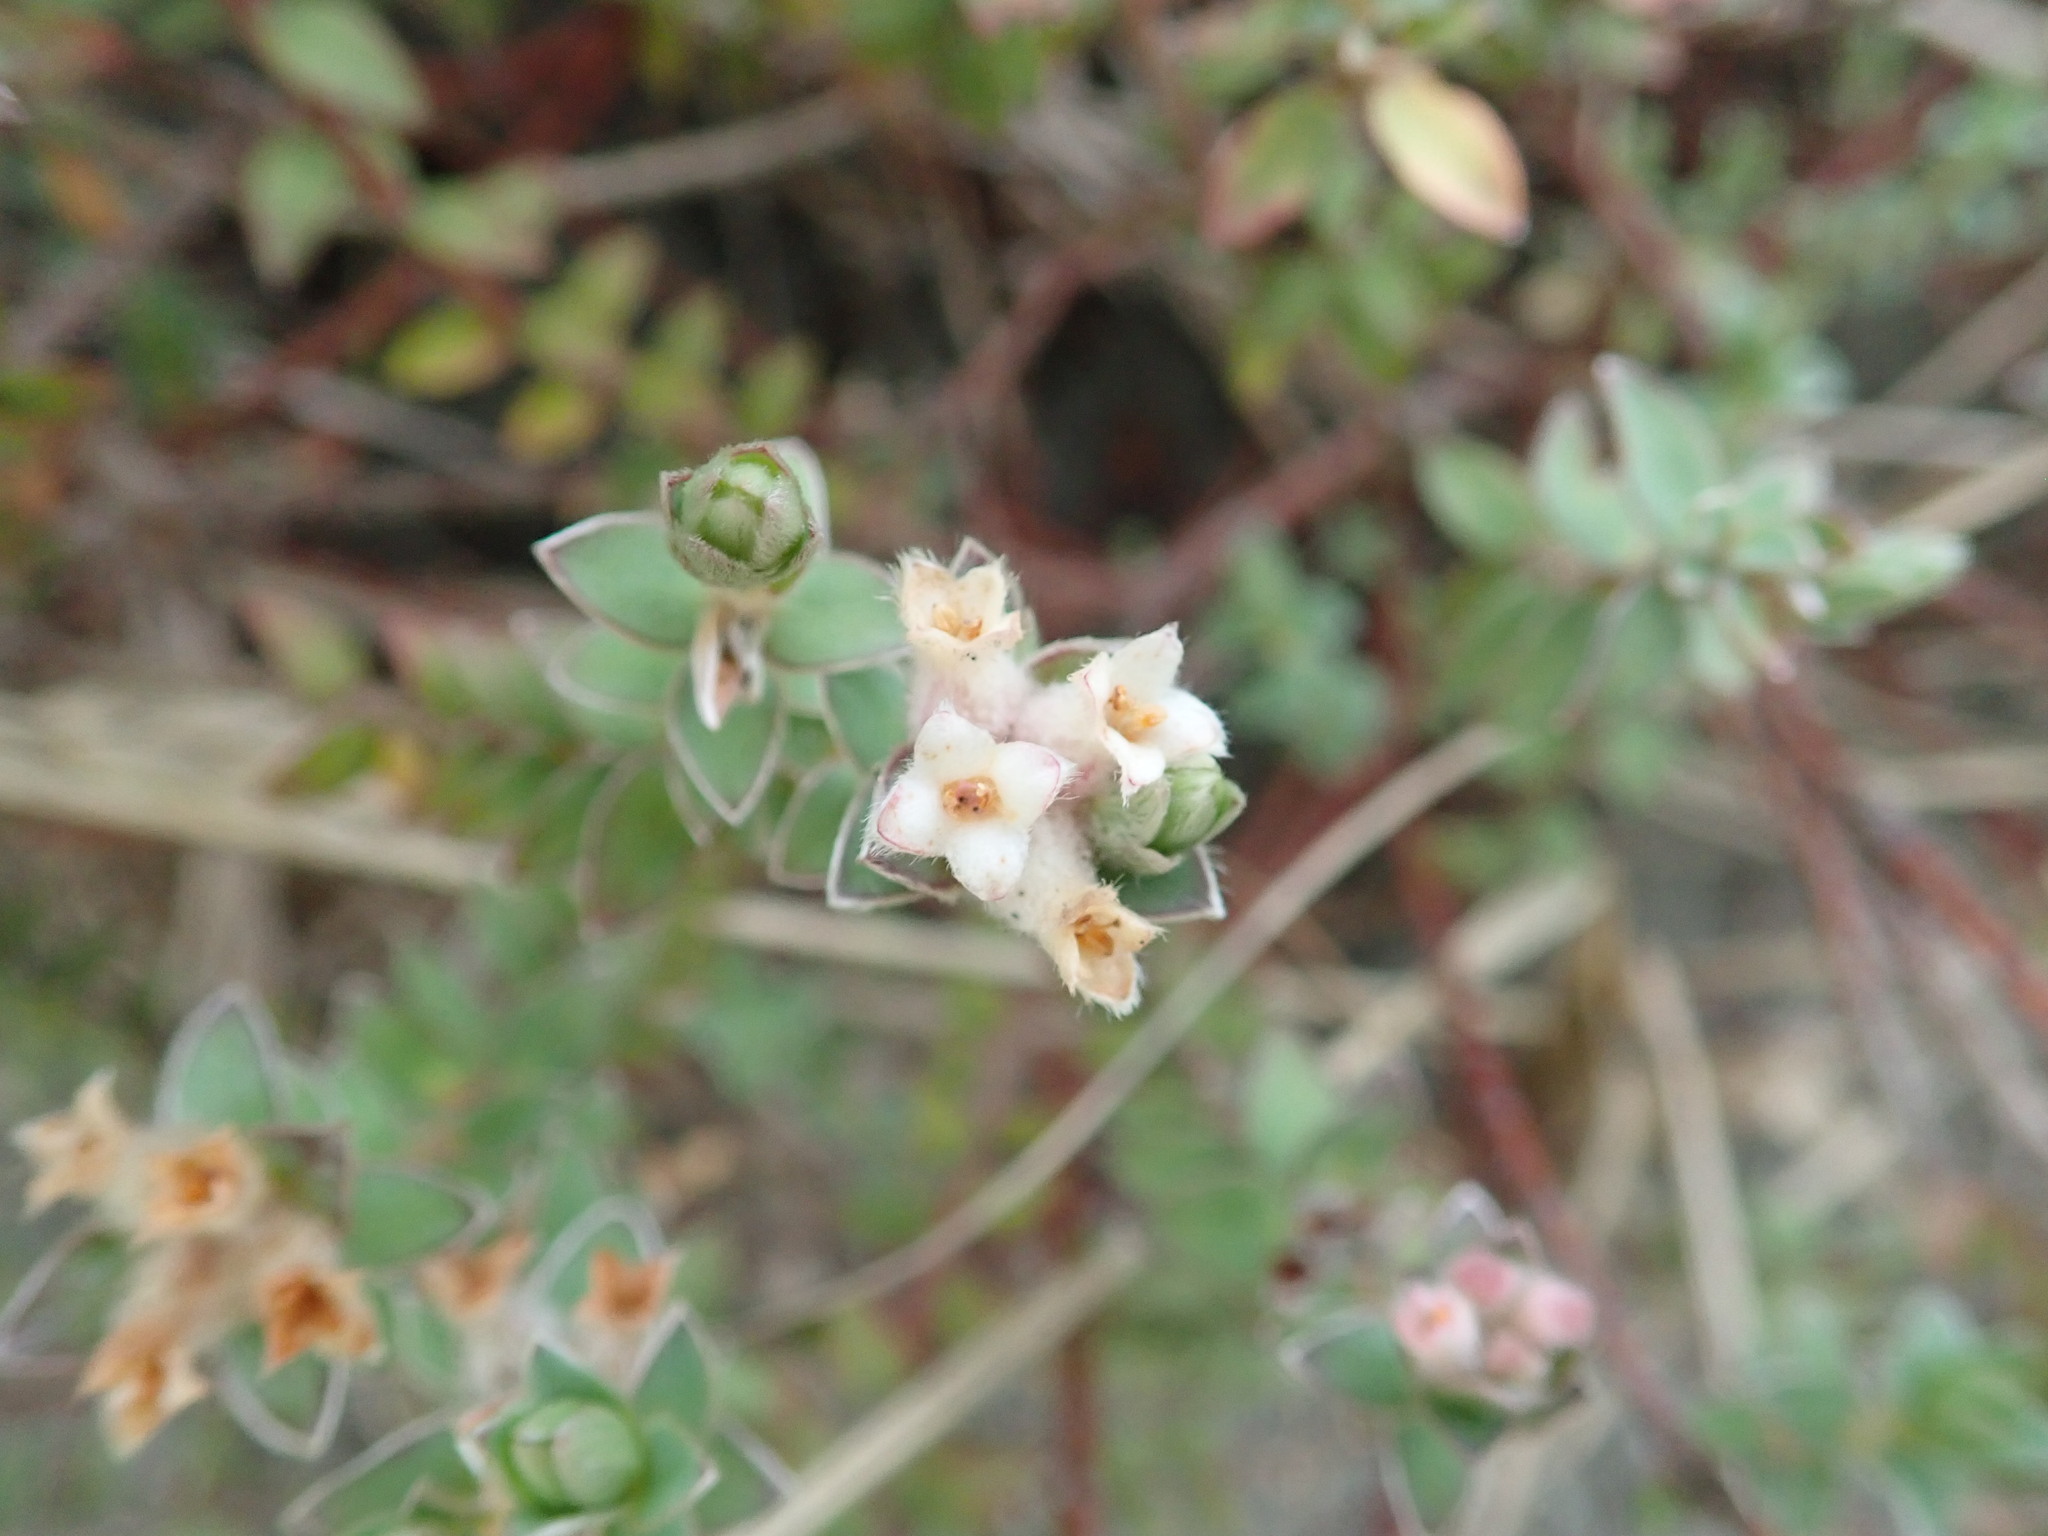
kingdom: Plantae
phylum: Tracheophyta
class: Magnoliopsida
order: Malvales
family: Thymelaeaceae
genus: Pimelea
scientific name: Pimelea villosa
